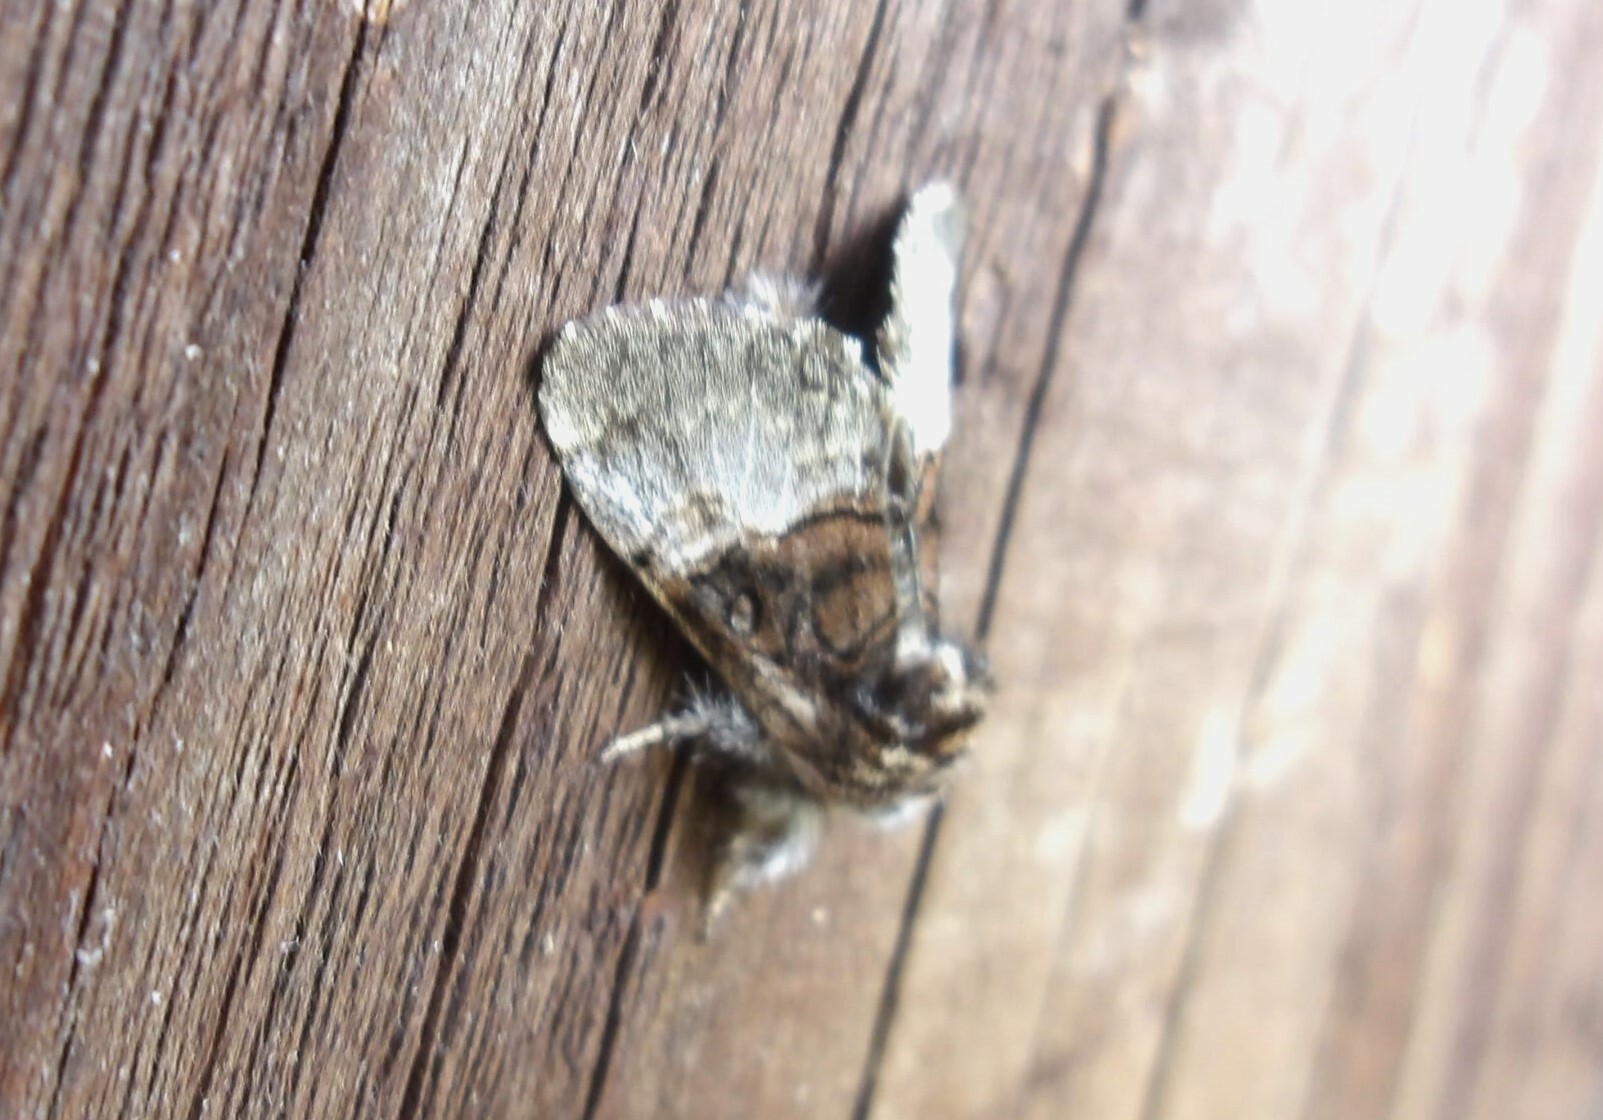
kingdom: Animalia
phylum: Arthropoda
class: Insecta
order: Lepidoptera
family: Noctuidae
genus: Colocasia
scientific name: Colocasia coryli
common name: Nut-tree tussock
